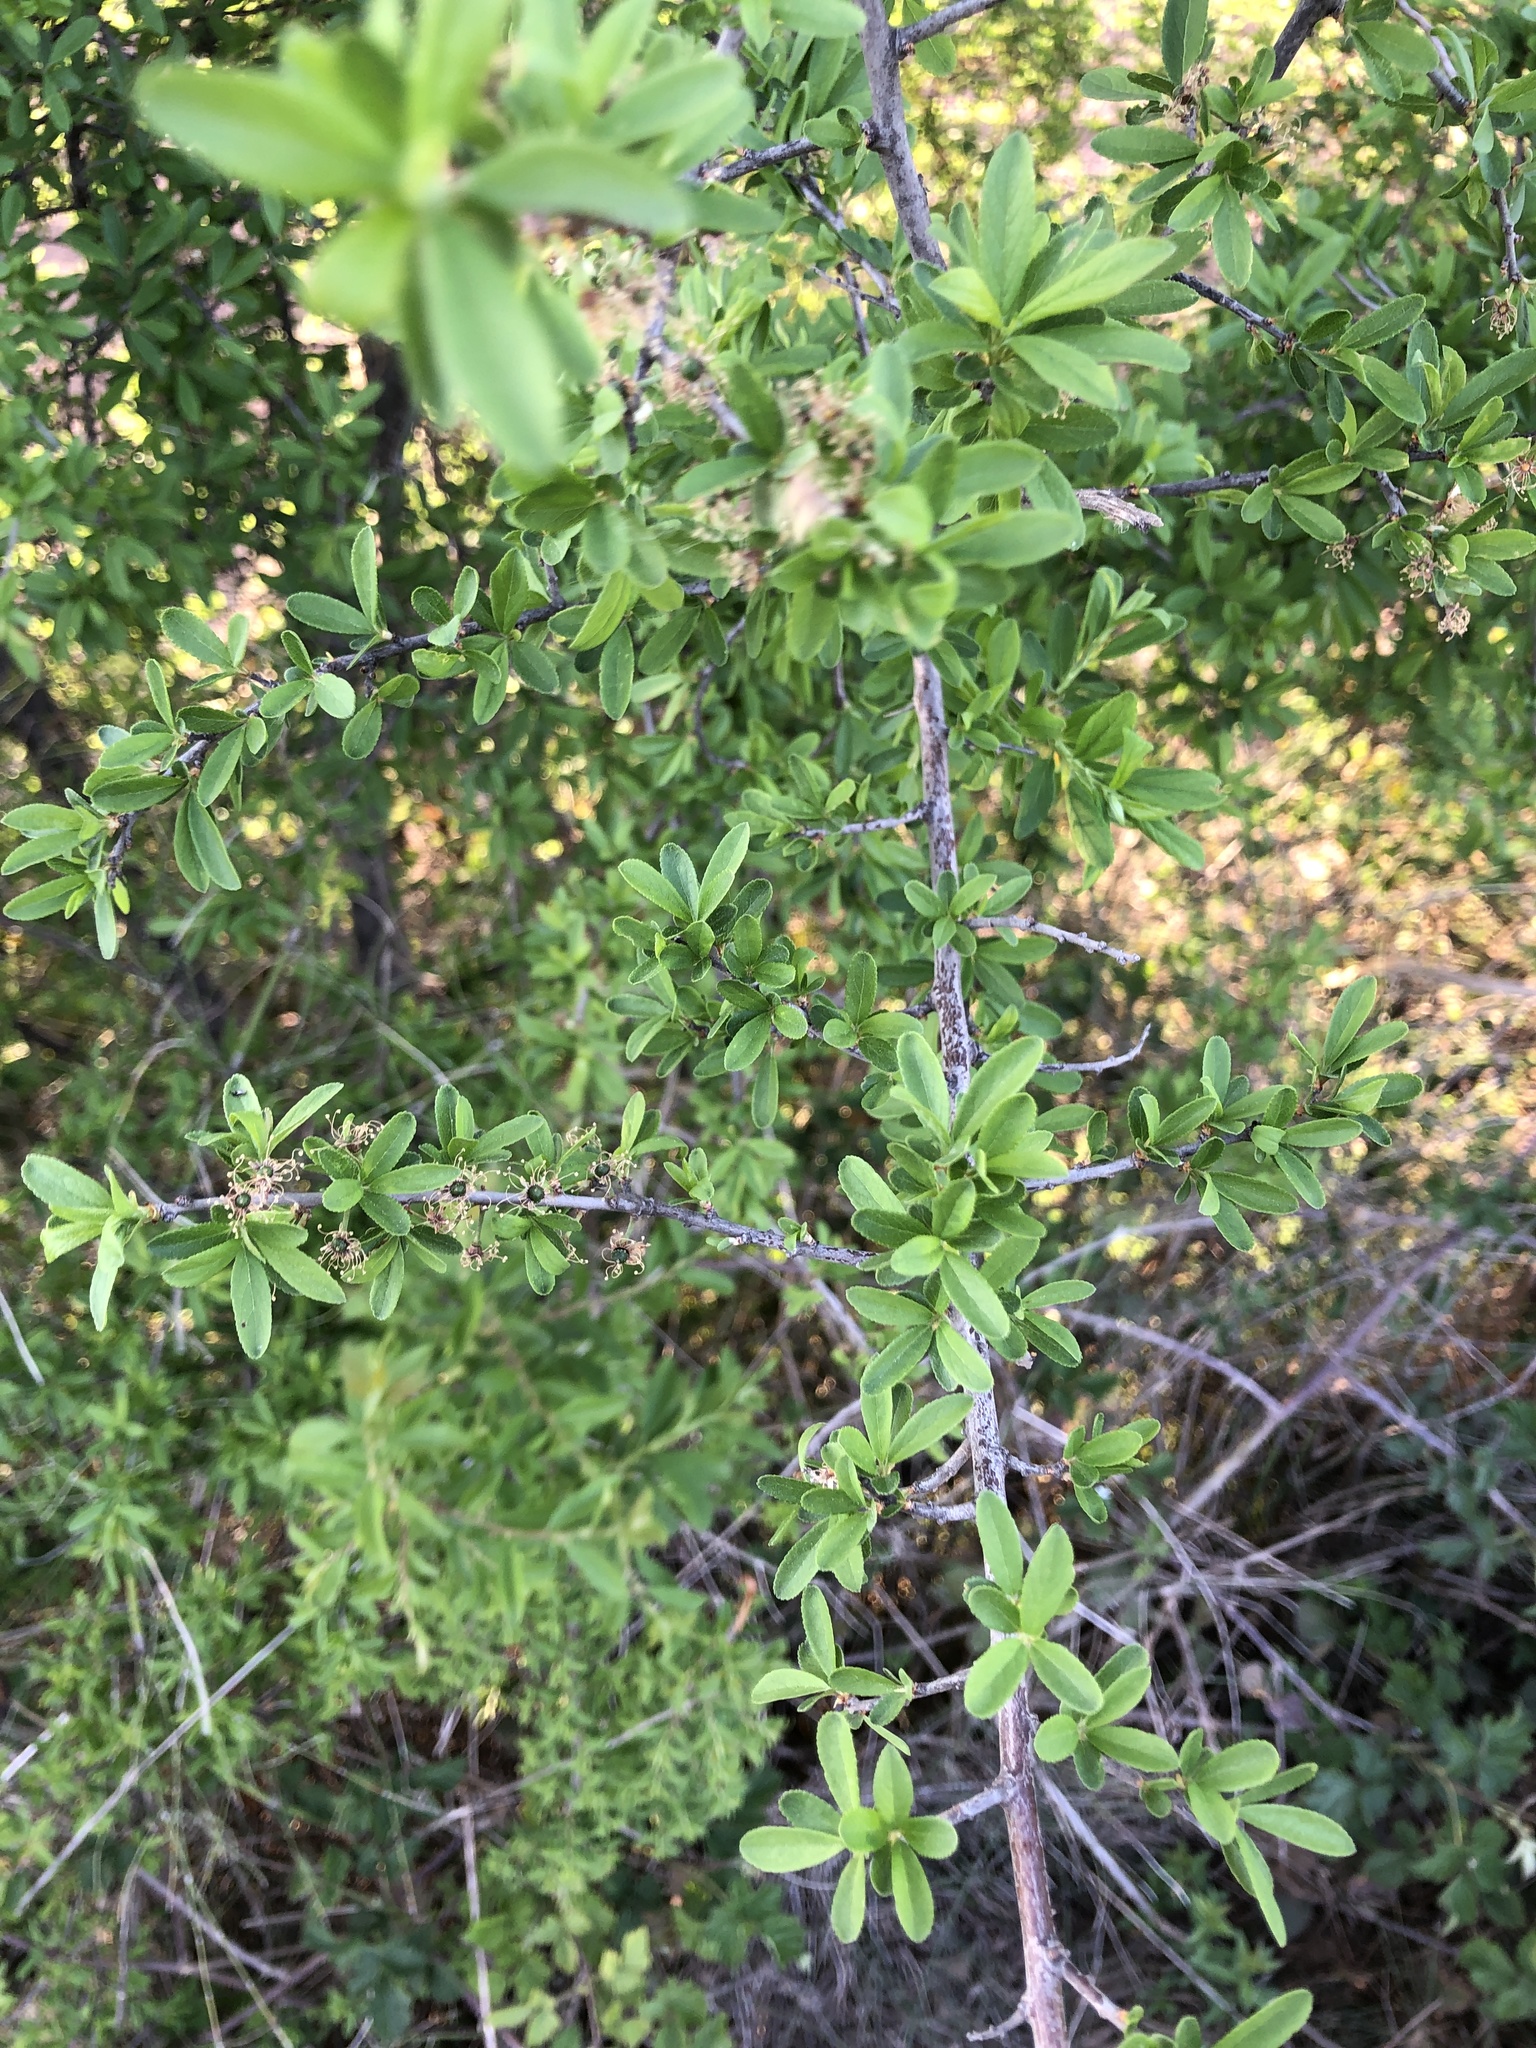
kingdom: Plantae
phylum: Tracheophyta
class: Magnoliopsida
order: Rosales
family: Rosaceae
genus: Prunus
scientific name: Prunus spinosa
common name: Blackthorn
